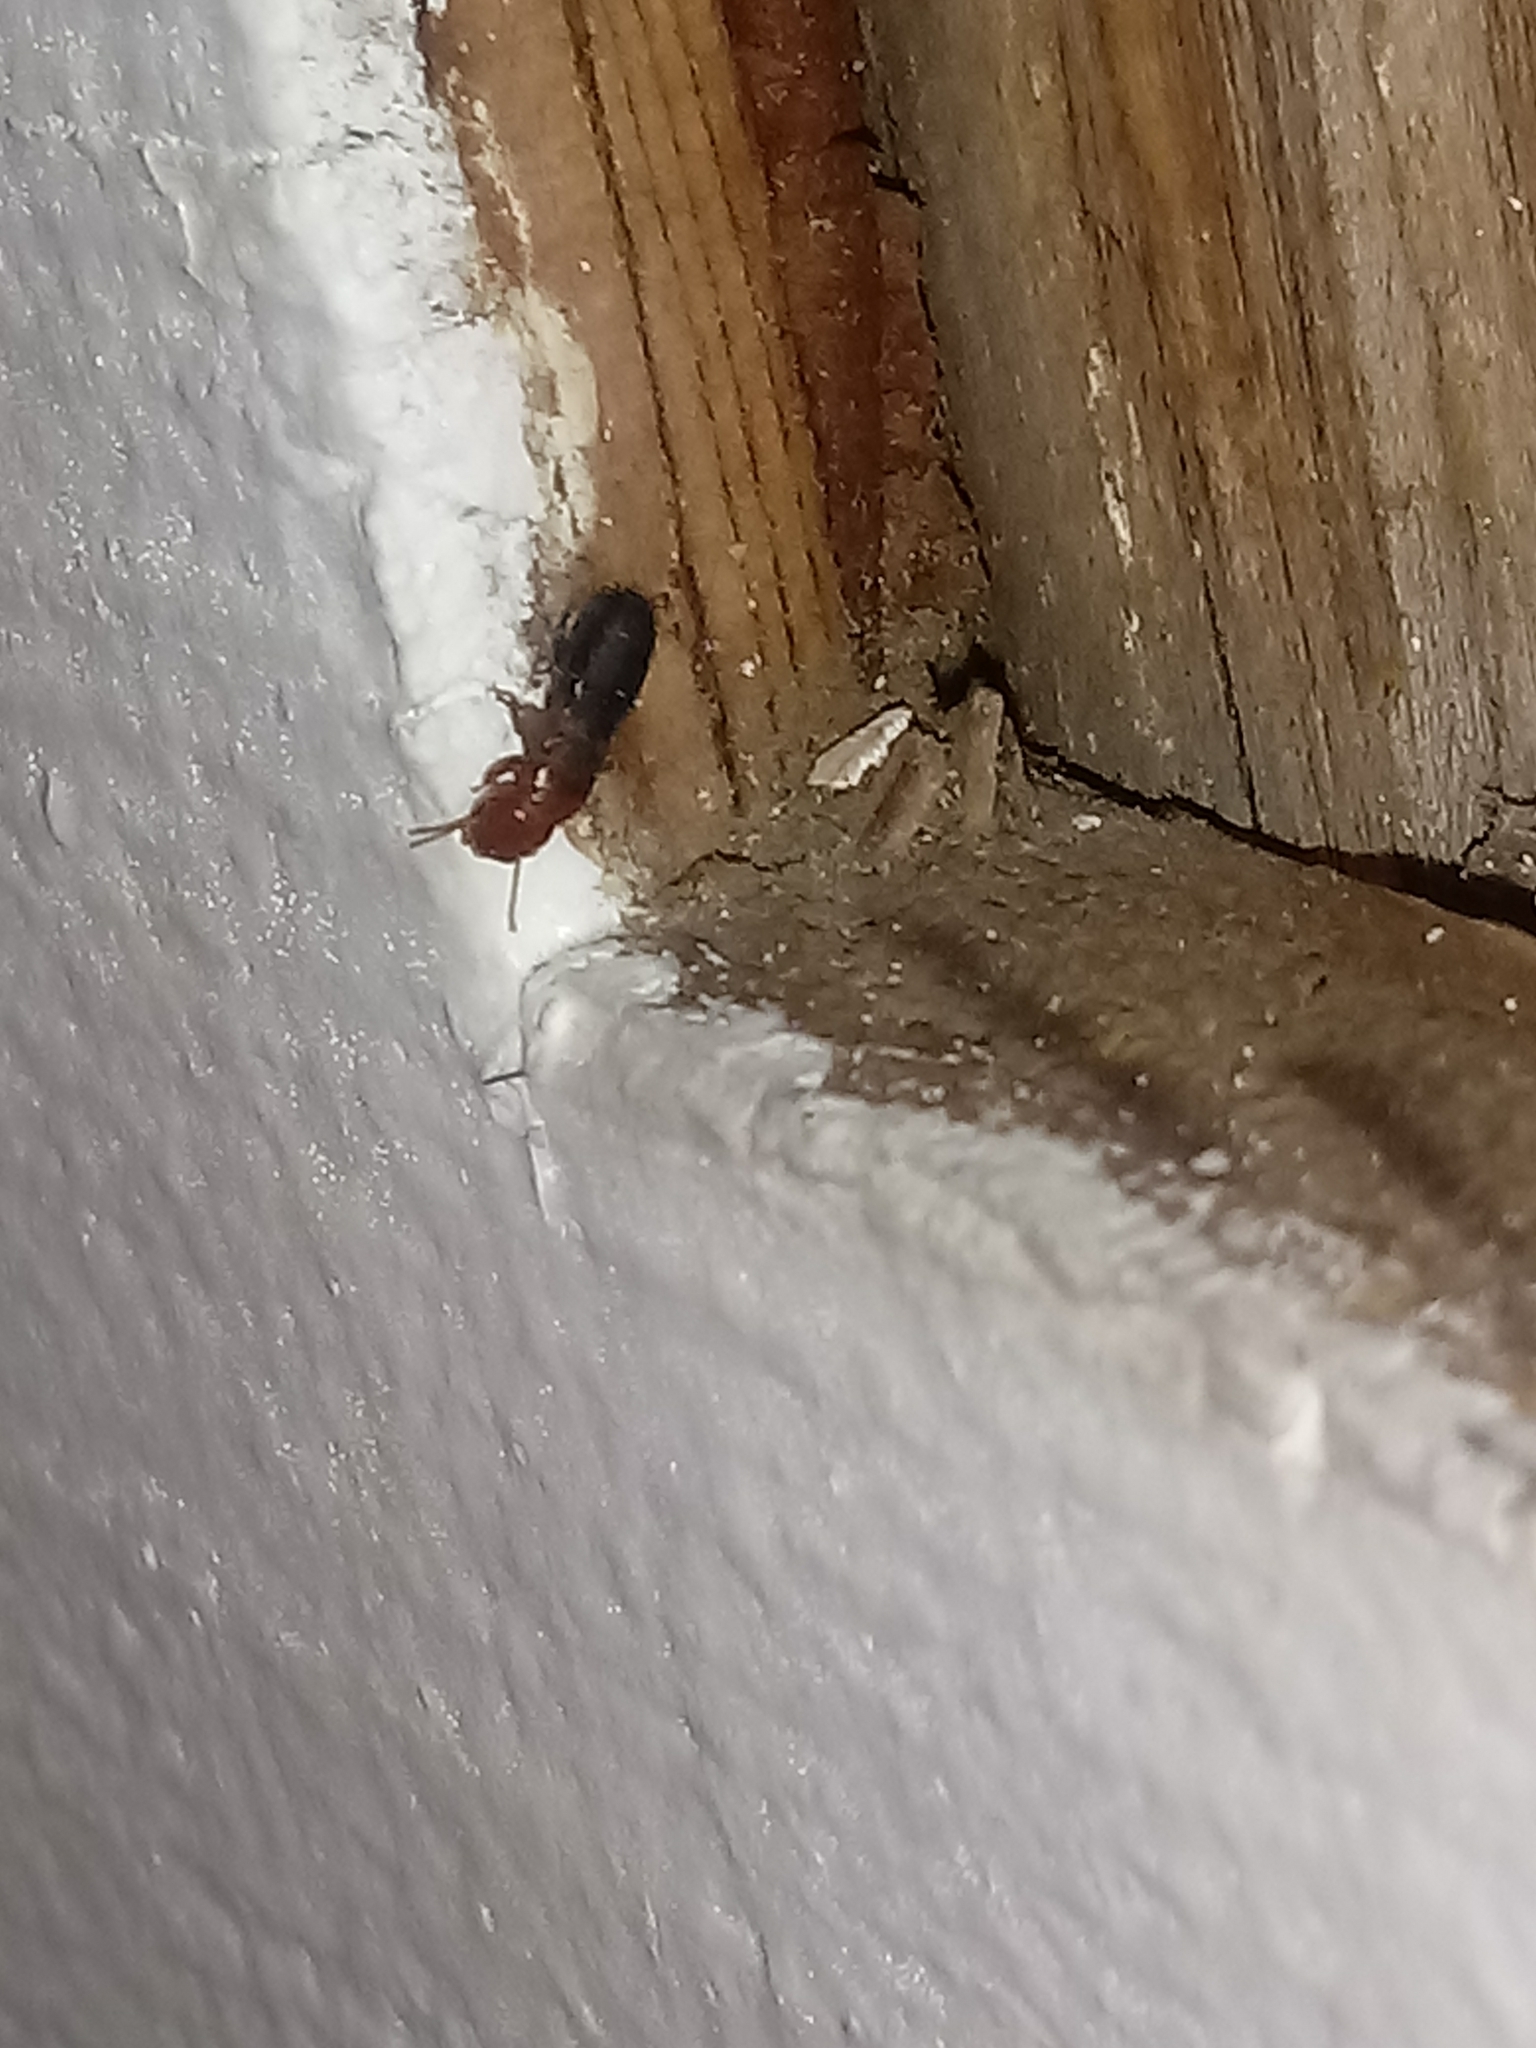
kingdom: Animalia
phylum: Arthropoda
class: Insecta
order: Blattodea
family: Kalotermitidae
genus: Incisitermes
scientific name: Incisitermes minor
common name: Termite
